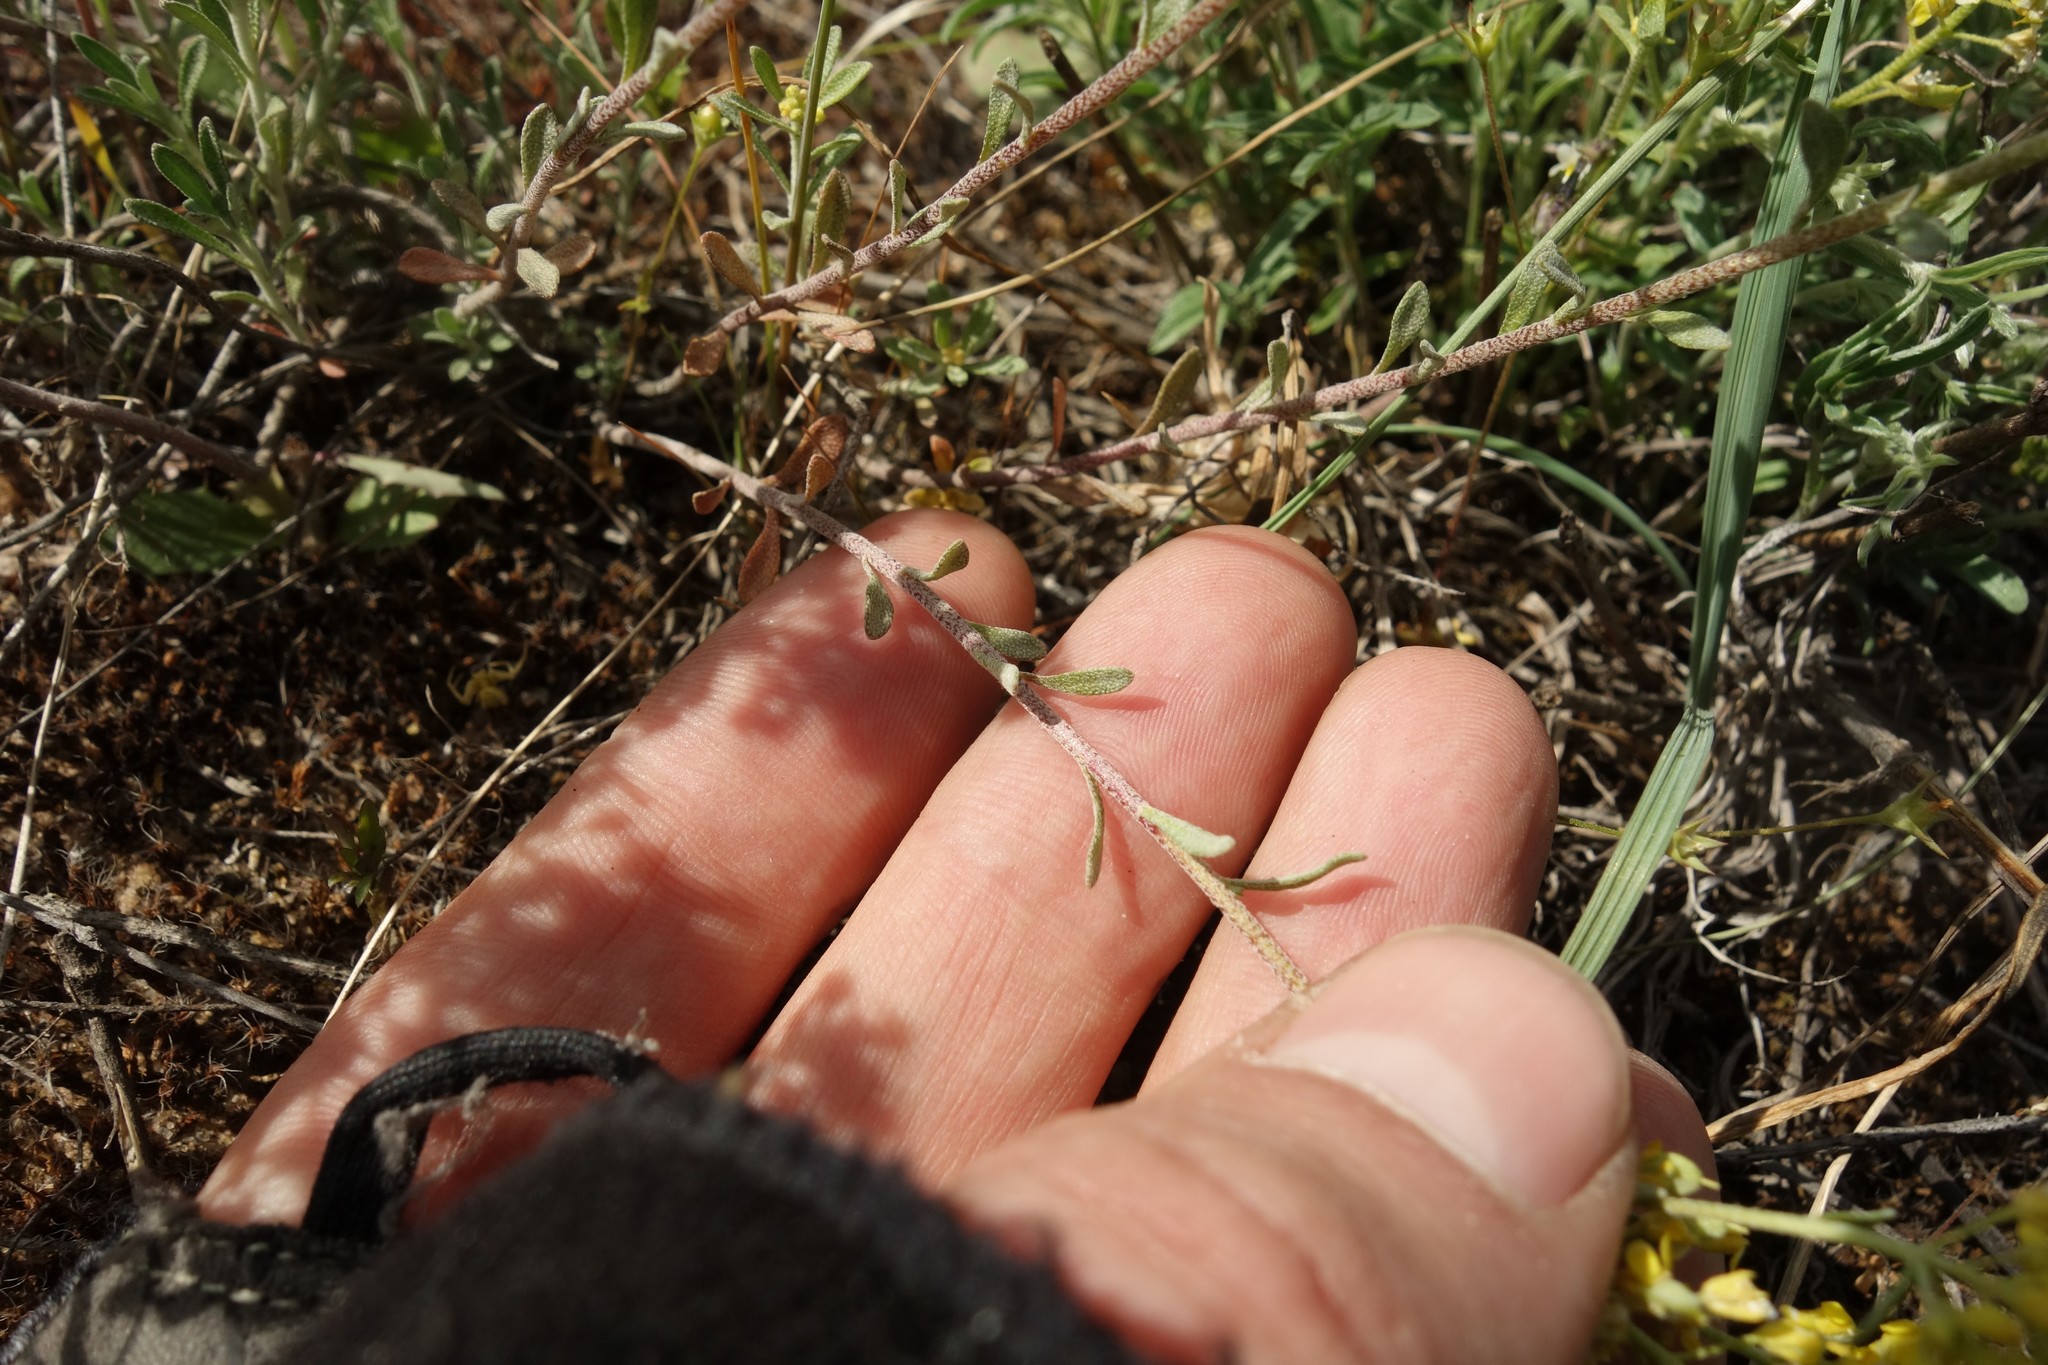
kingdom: Plantae
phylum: Tracheophyta
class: Magnoliopsida
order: Brassicales
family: Brassicaceae
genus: Odontarrhena
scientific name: Odontarrhena tortuosa
